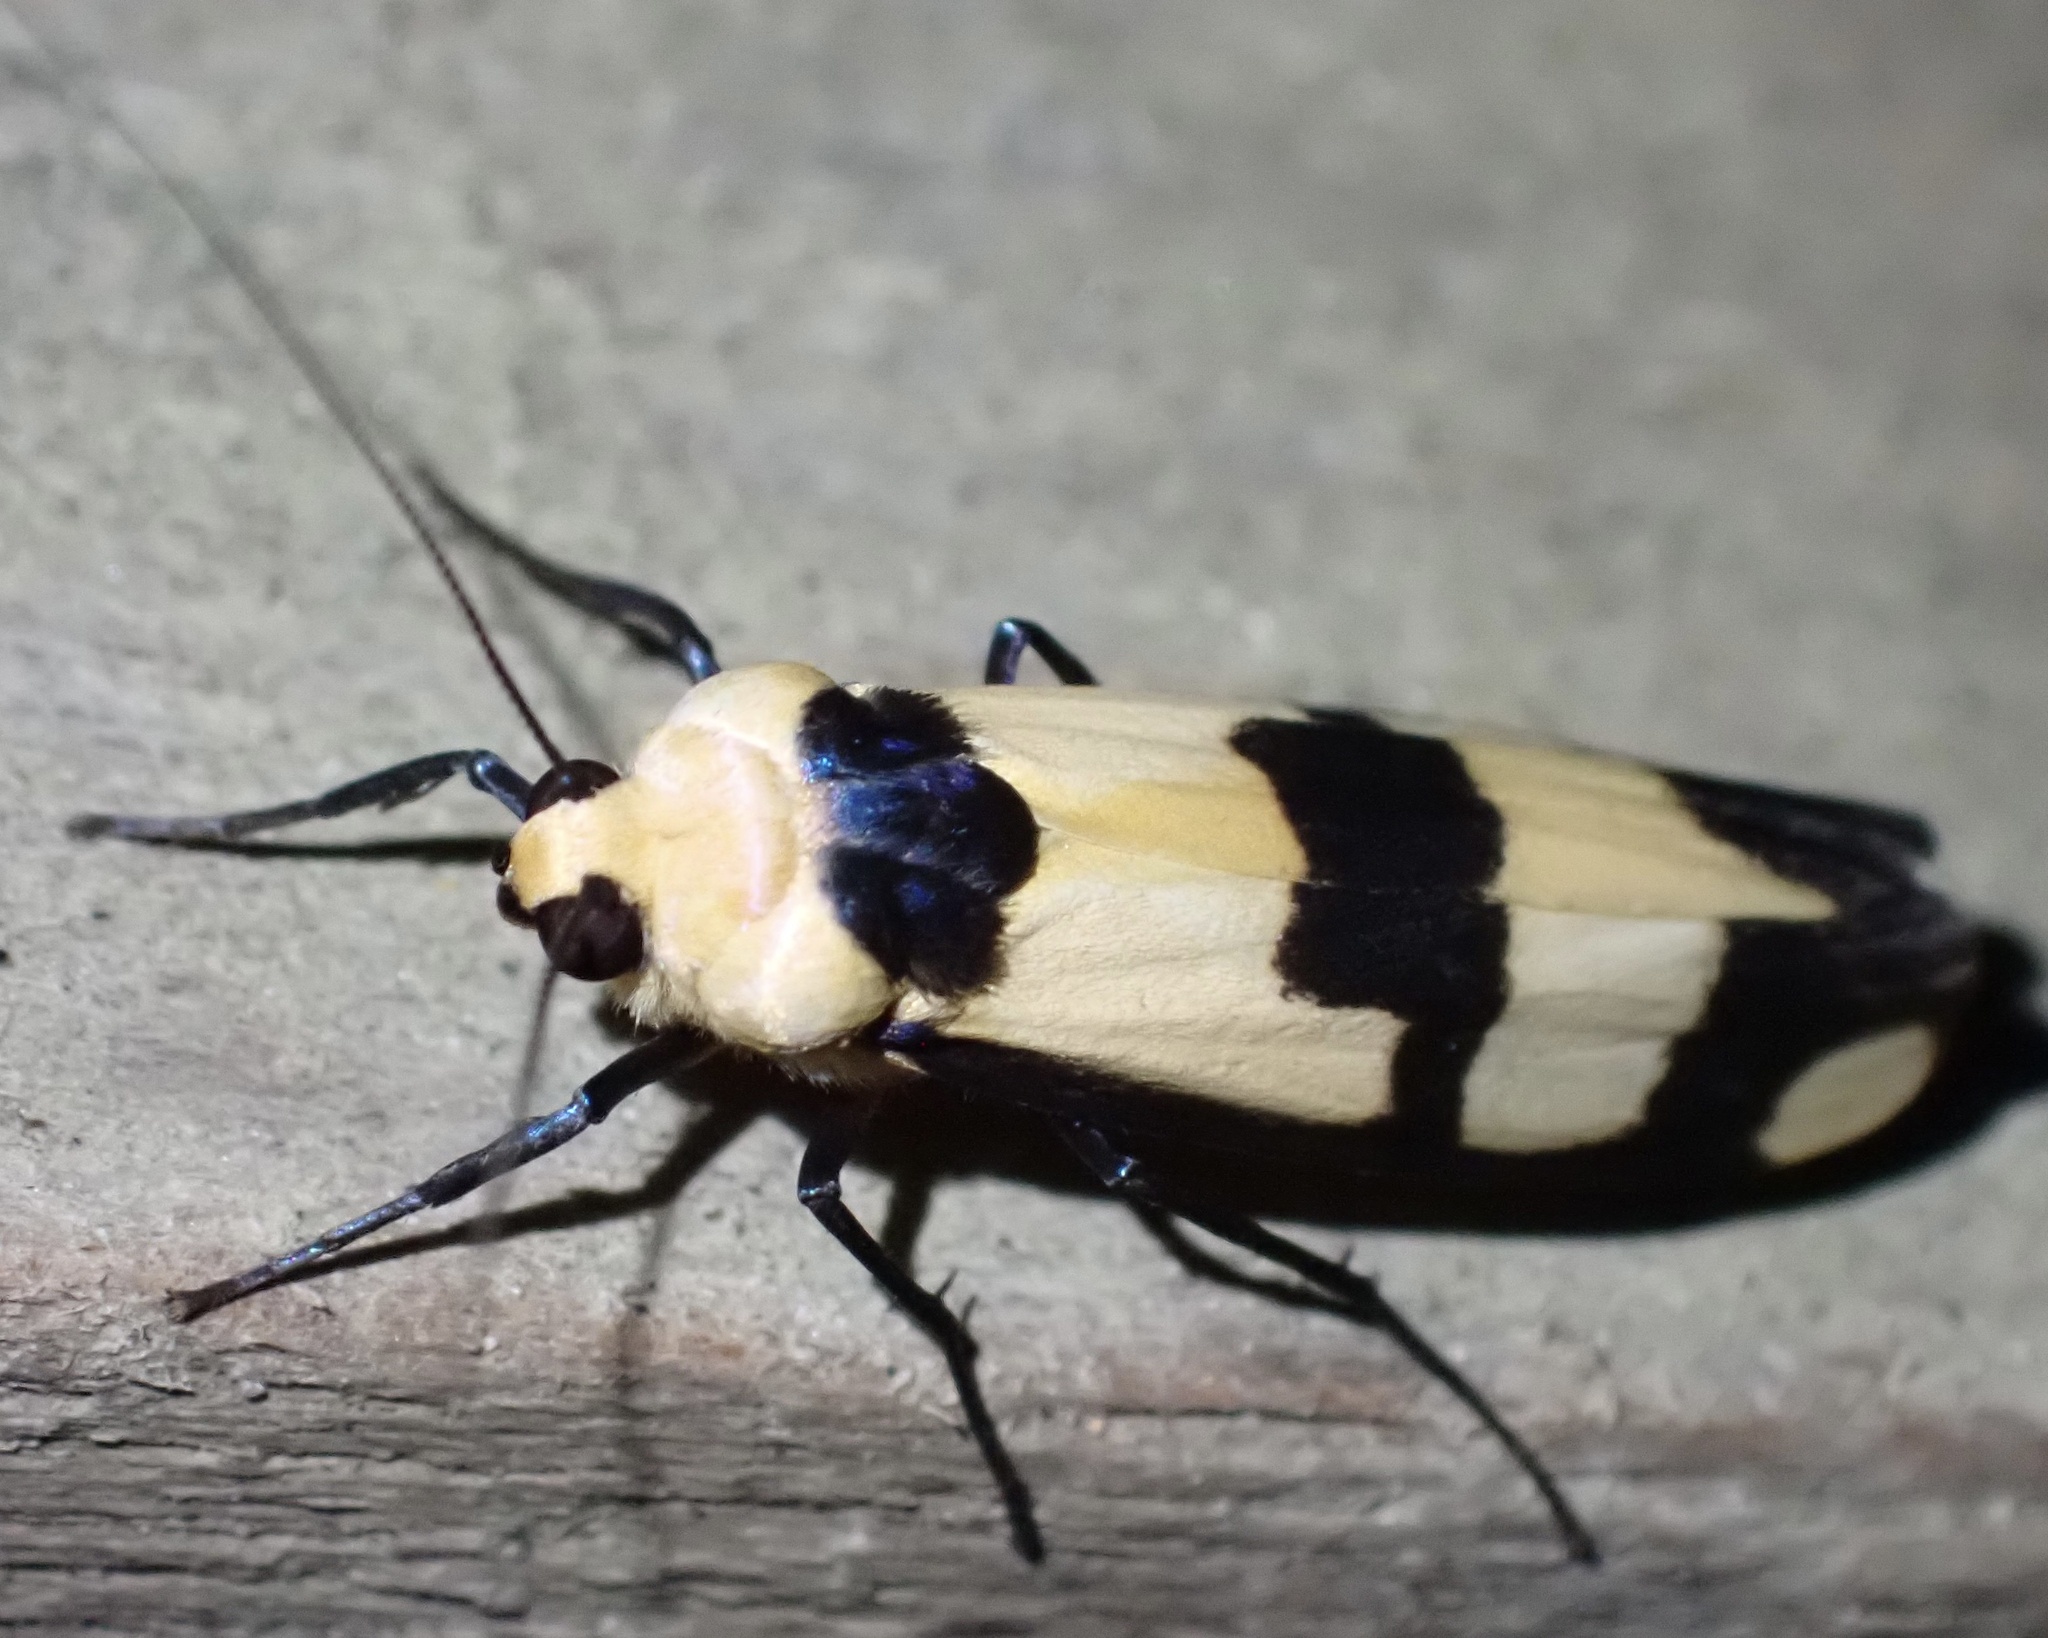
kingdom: Animalia
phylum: Arthropoda
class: Insecta
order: Lepidoptera
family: Erebidae
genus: Oeonistis
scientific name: Oeonistis delia
